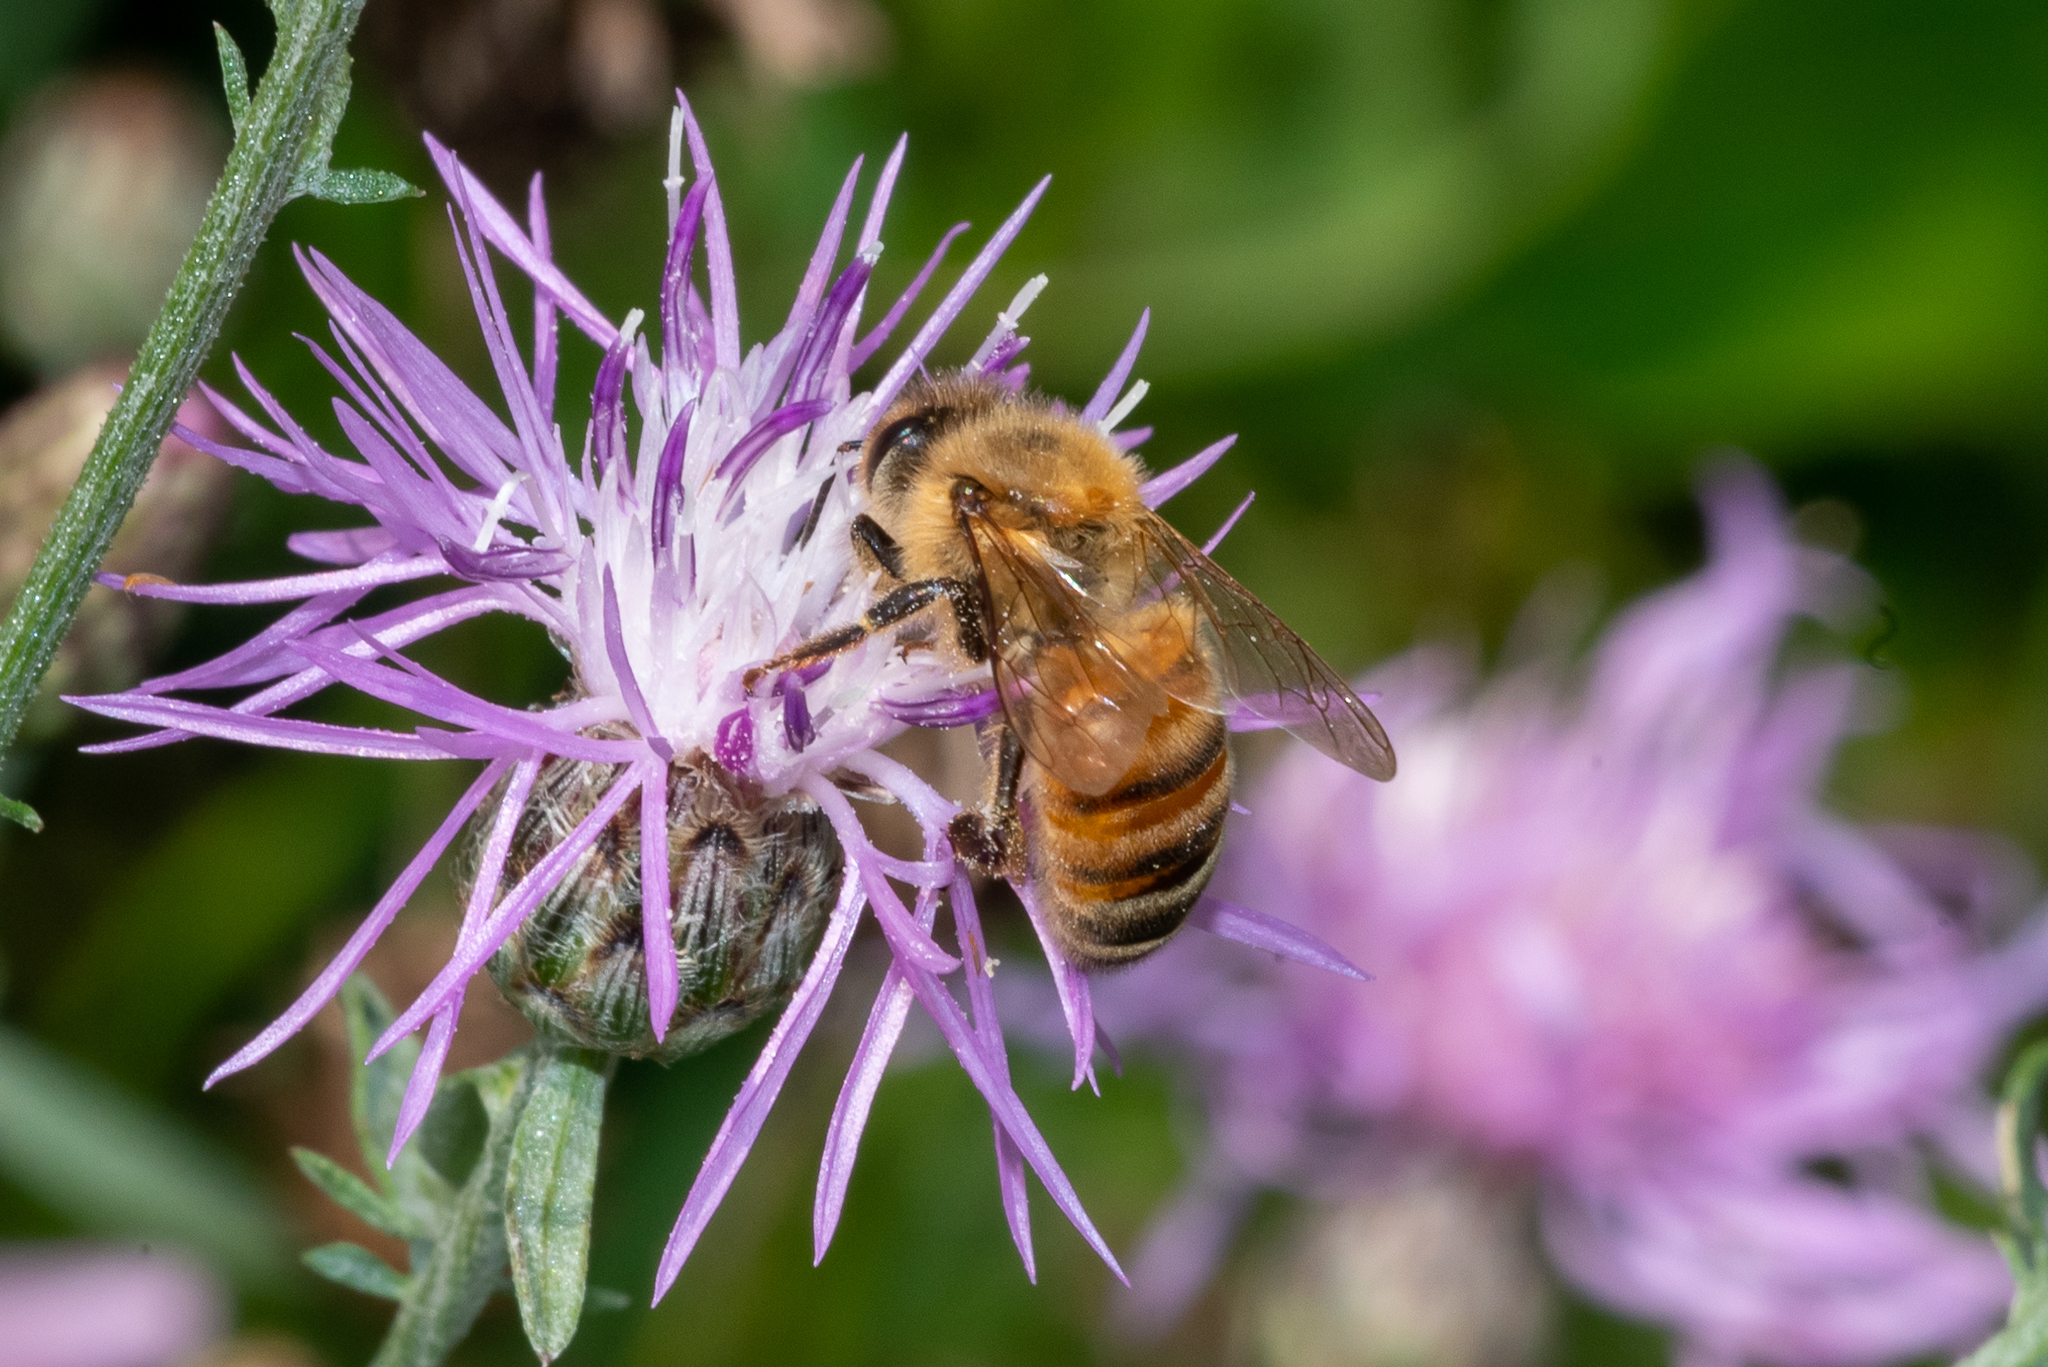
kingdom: Animalia
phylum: Arthropoda
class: Insecta
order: Hymenoptera
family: Apidae
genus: Apis
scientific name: Apis mellifera
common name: Honey bee
